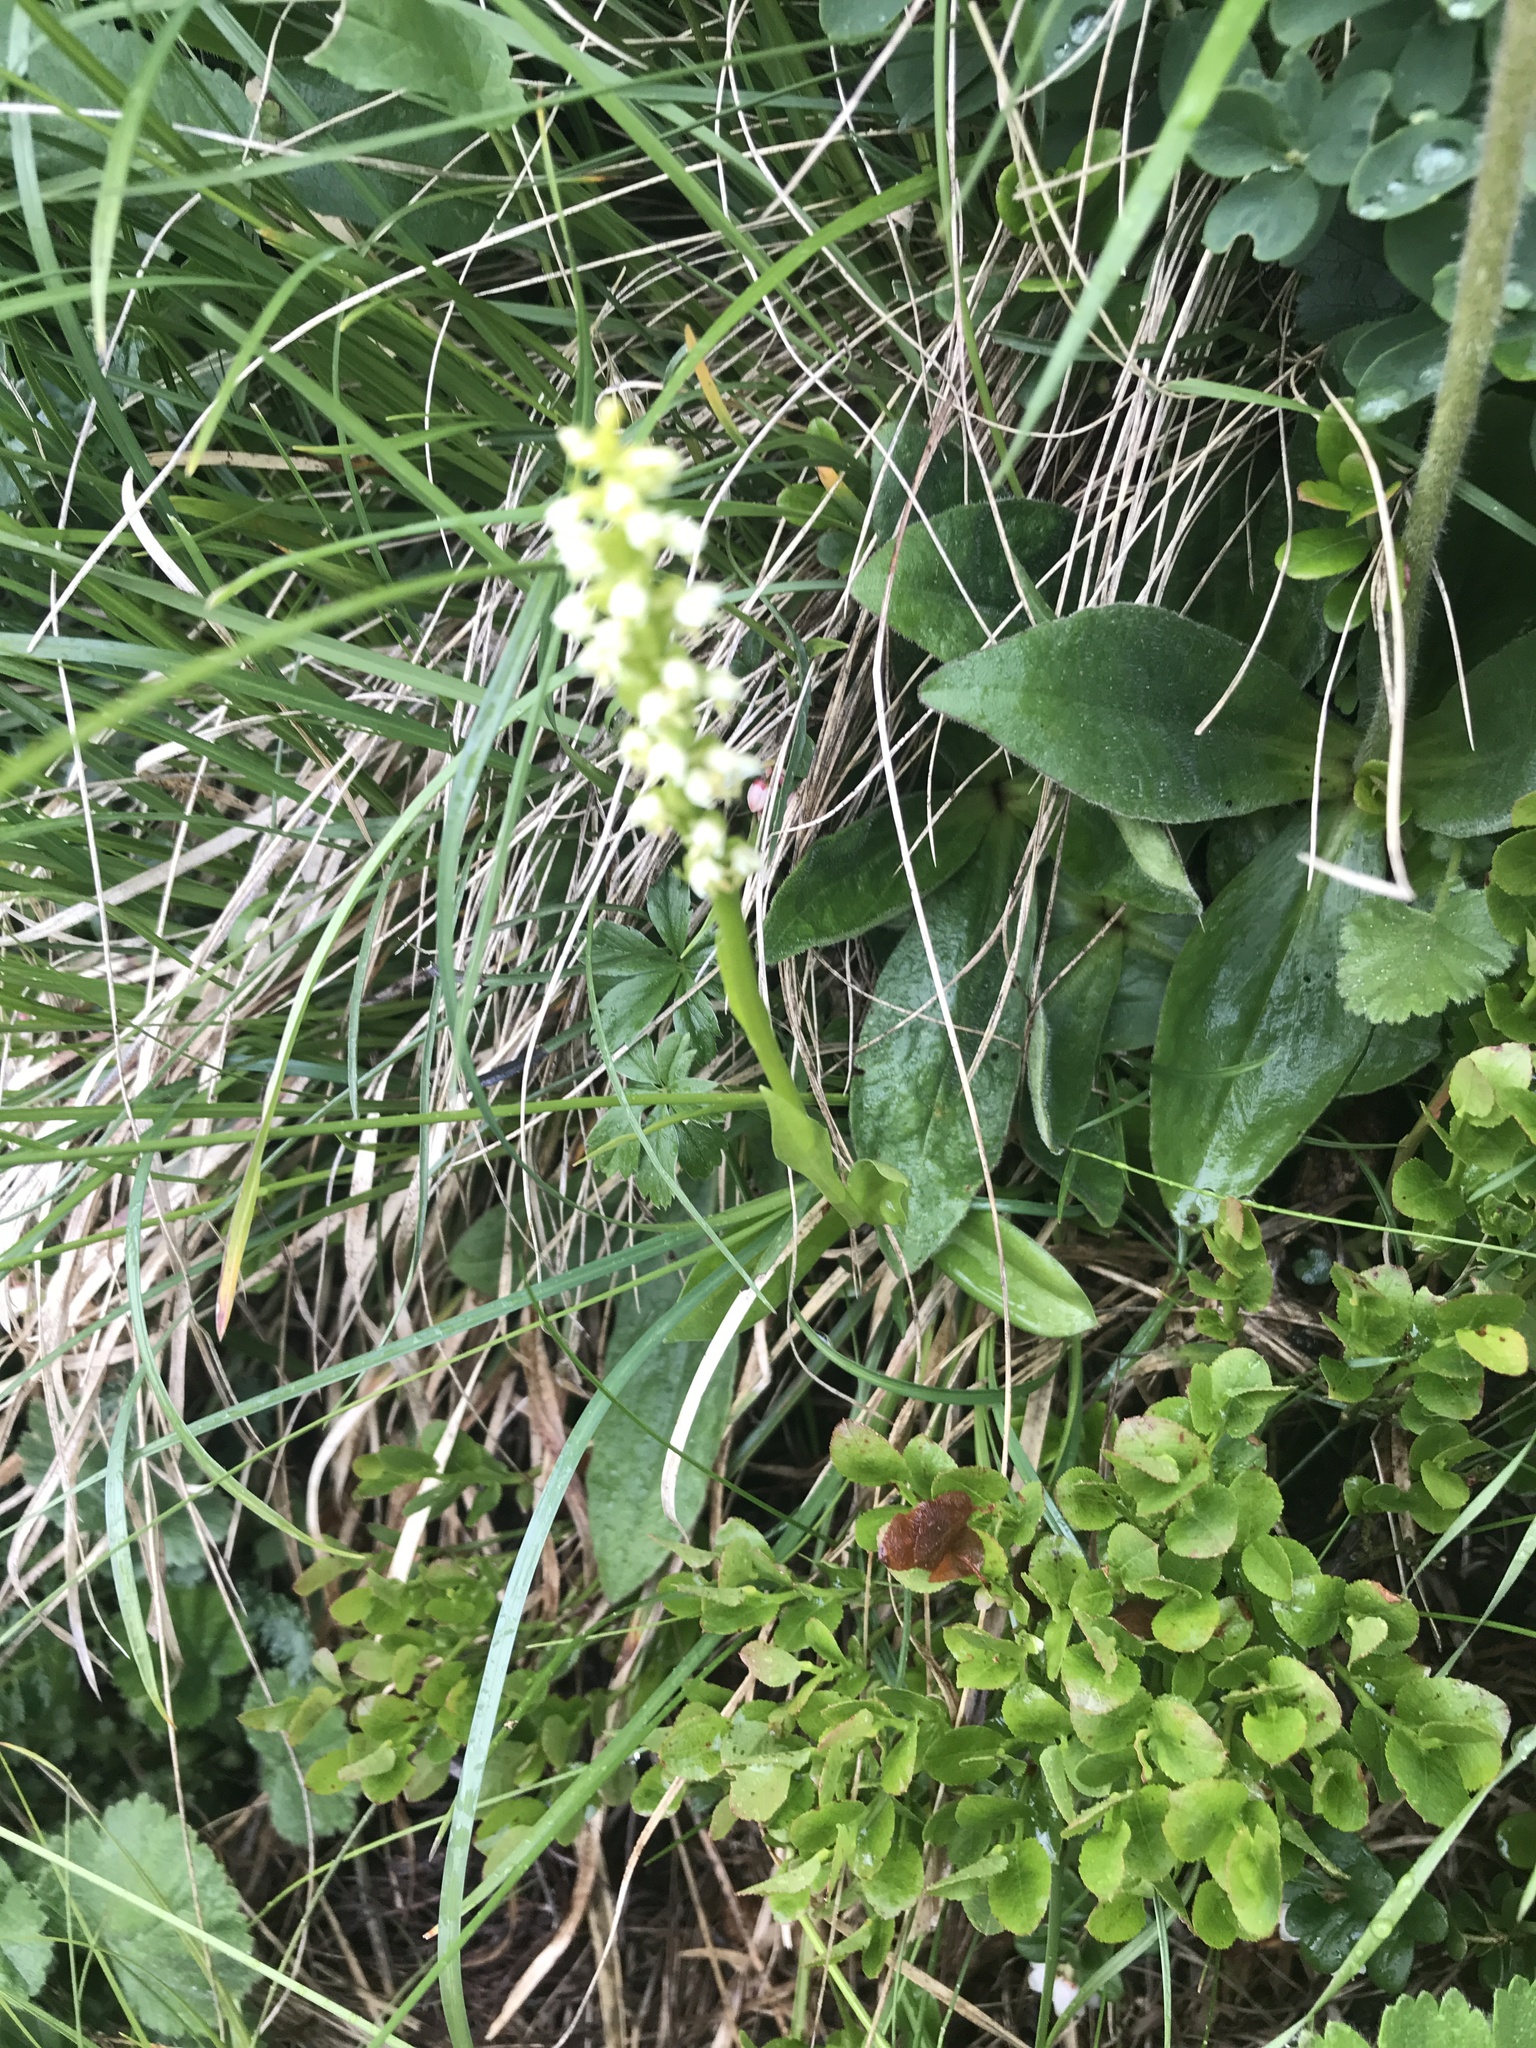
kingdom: Plantae
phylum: Tracheophyta
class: Liliopsida
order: Asparagales
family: Orchidaceae
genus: Pseudorchis
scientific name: Pseudorchis albida
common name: Small-white orchid
